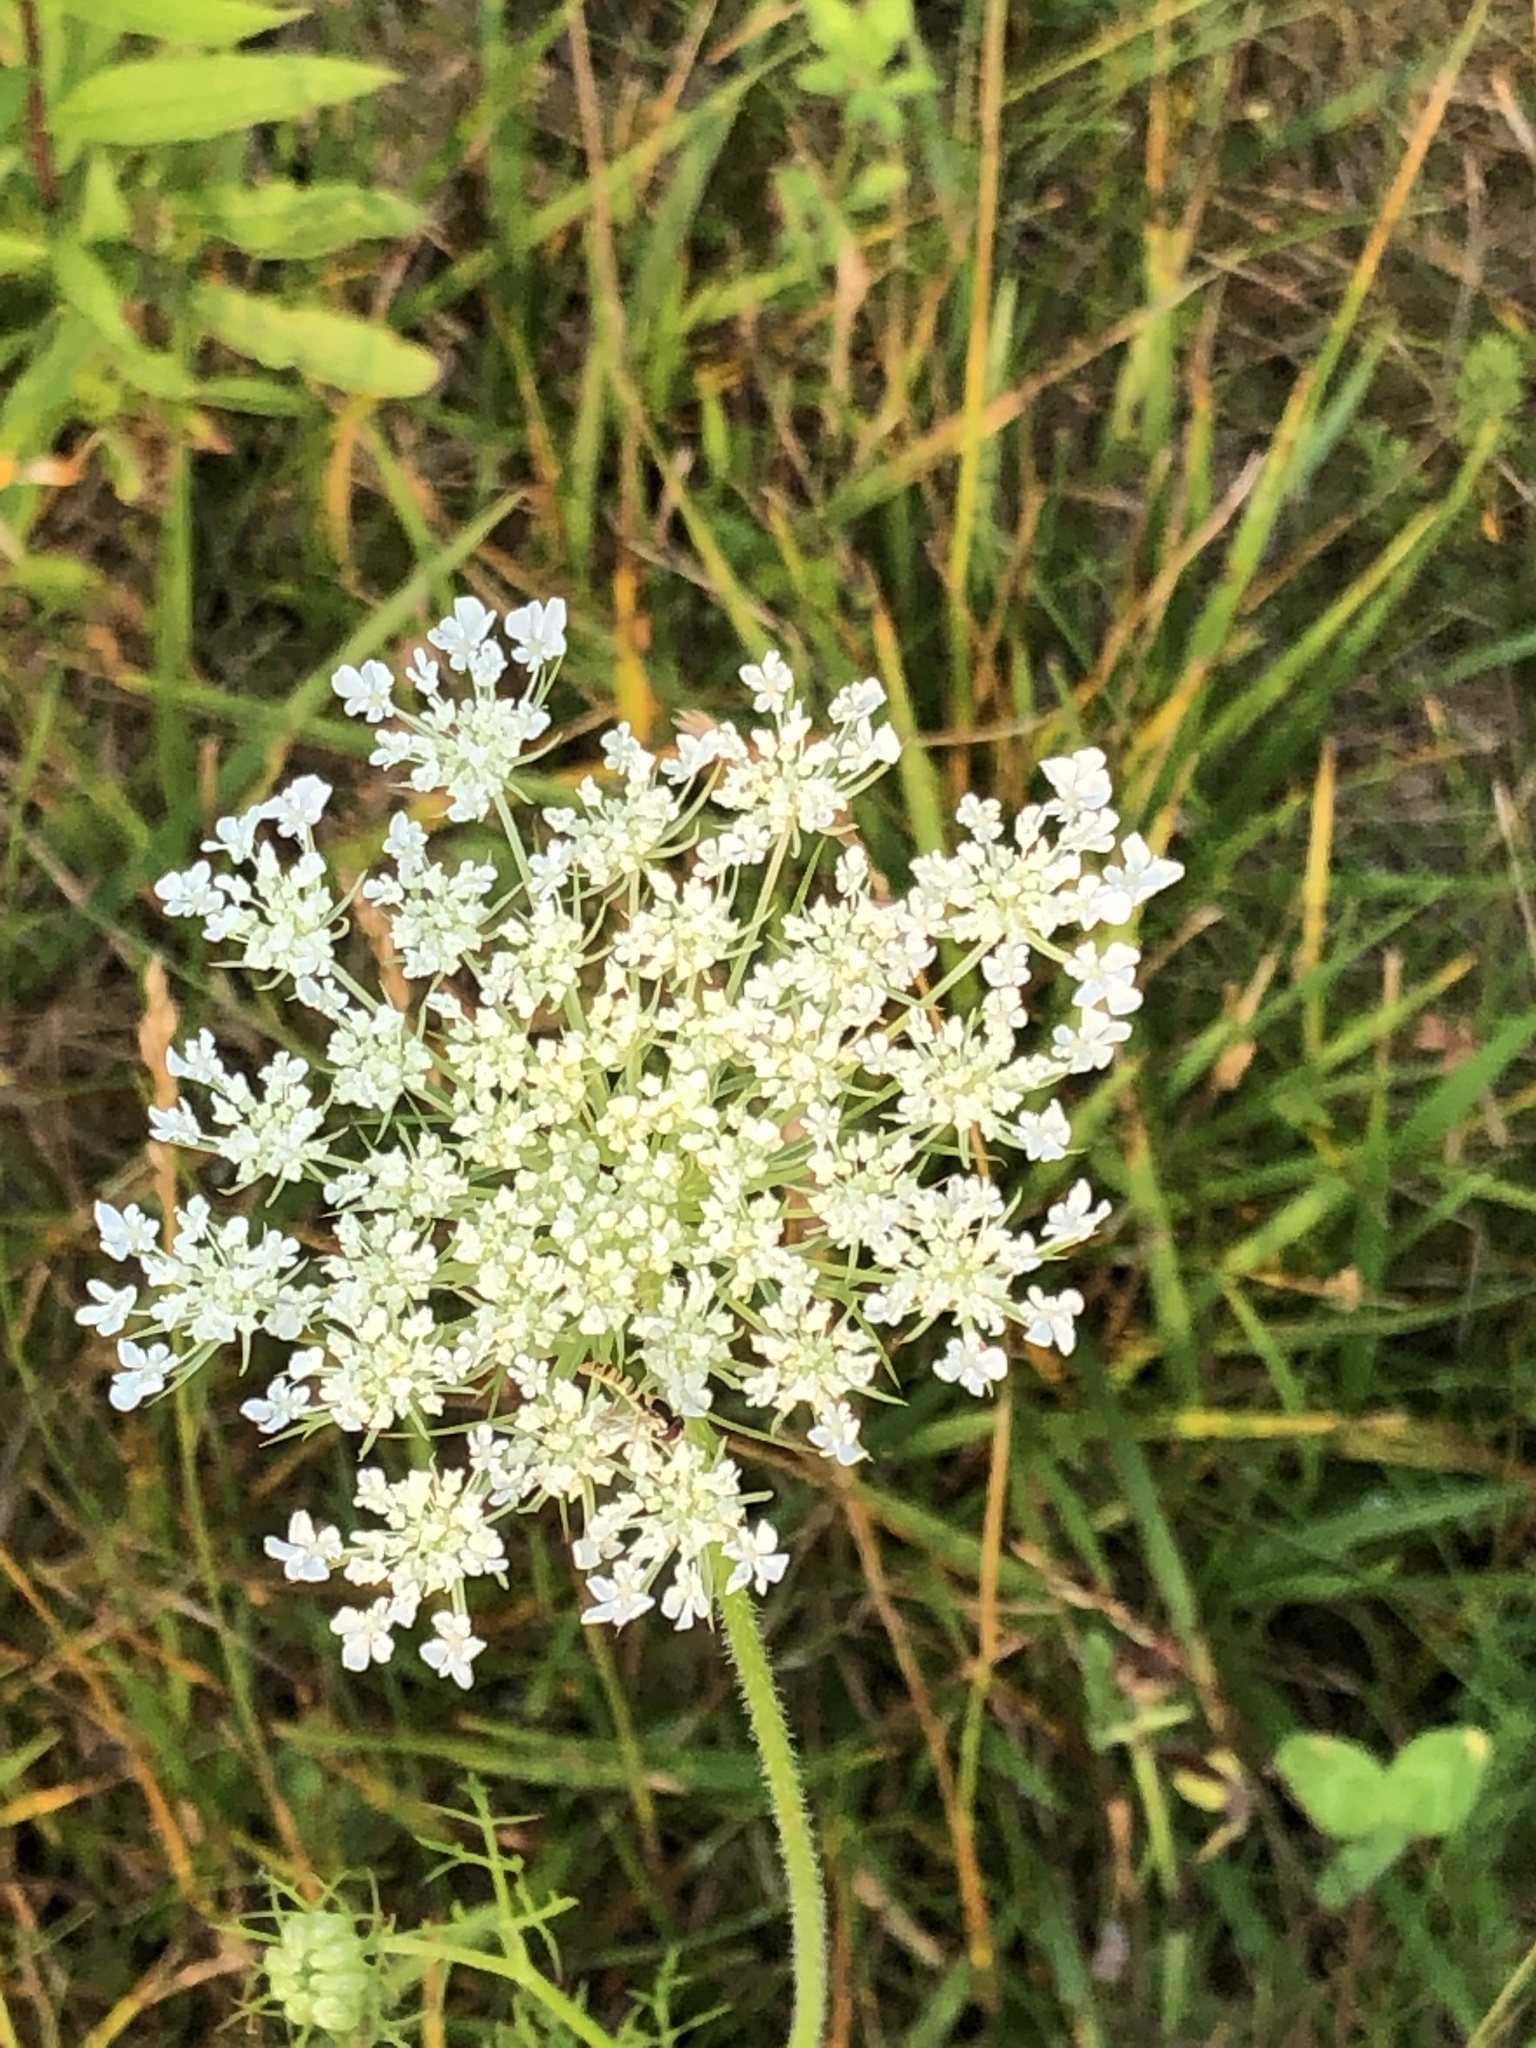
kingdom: Plantae
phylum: Tracheophyta
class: Magnoliopsida
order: Apiales
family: Apiaceae
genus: Daucus
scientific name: Daucus carota
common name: Wild carrot
